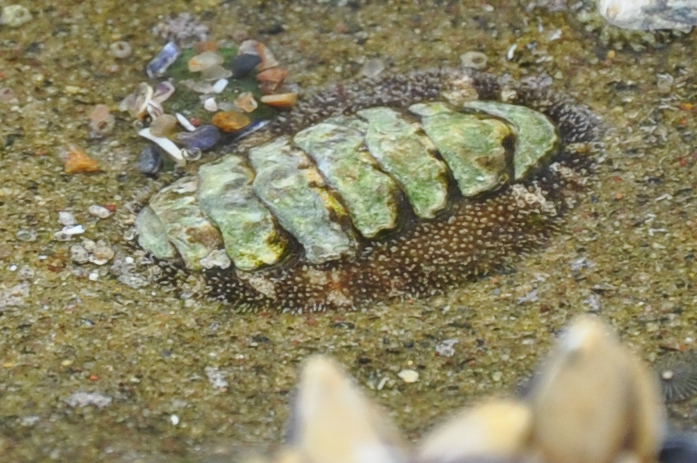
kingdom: Animalia
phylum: Mollusca
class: Polyplacophora
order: Chitonida
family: Tonicellidae
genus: Nuttallina
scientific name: Nuttallina californica
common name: California nuttall chiton
